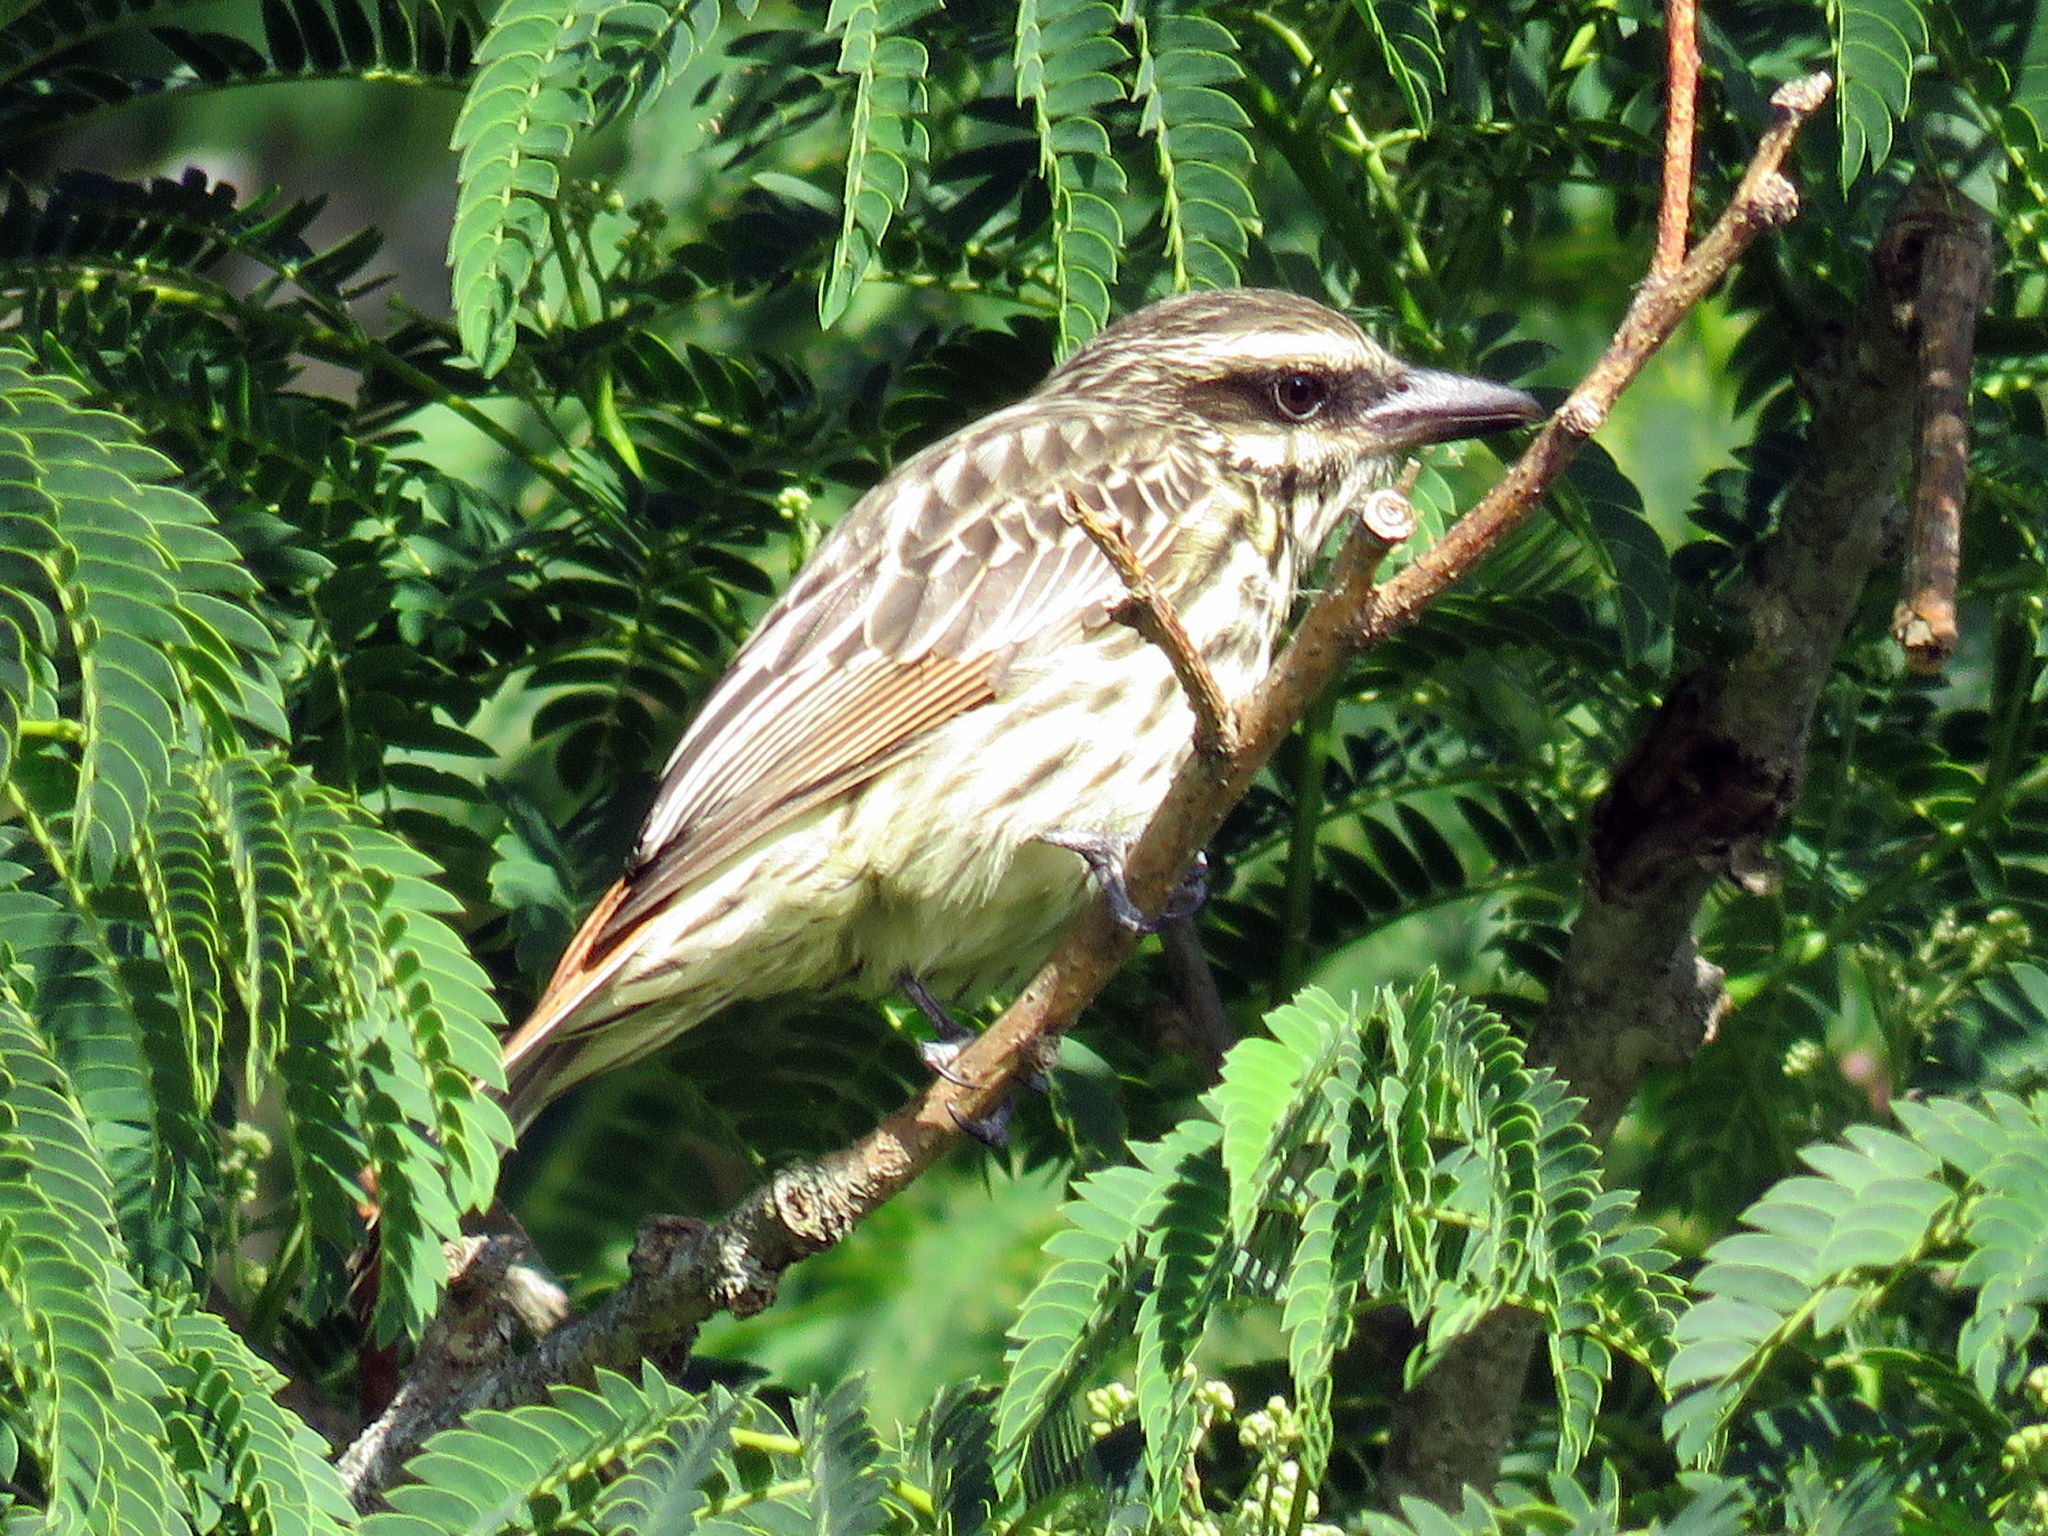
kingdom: Animalia
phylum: Chordata
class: Aves
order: Passeriformes
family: Tyrannidae
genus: Myiodynastes
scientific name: Myiodynastes maculatus
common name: Streaked flycatcher
